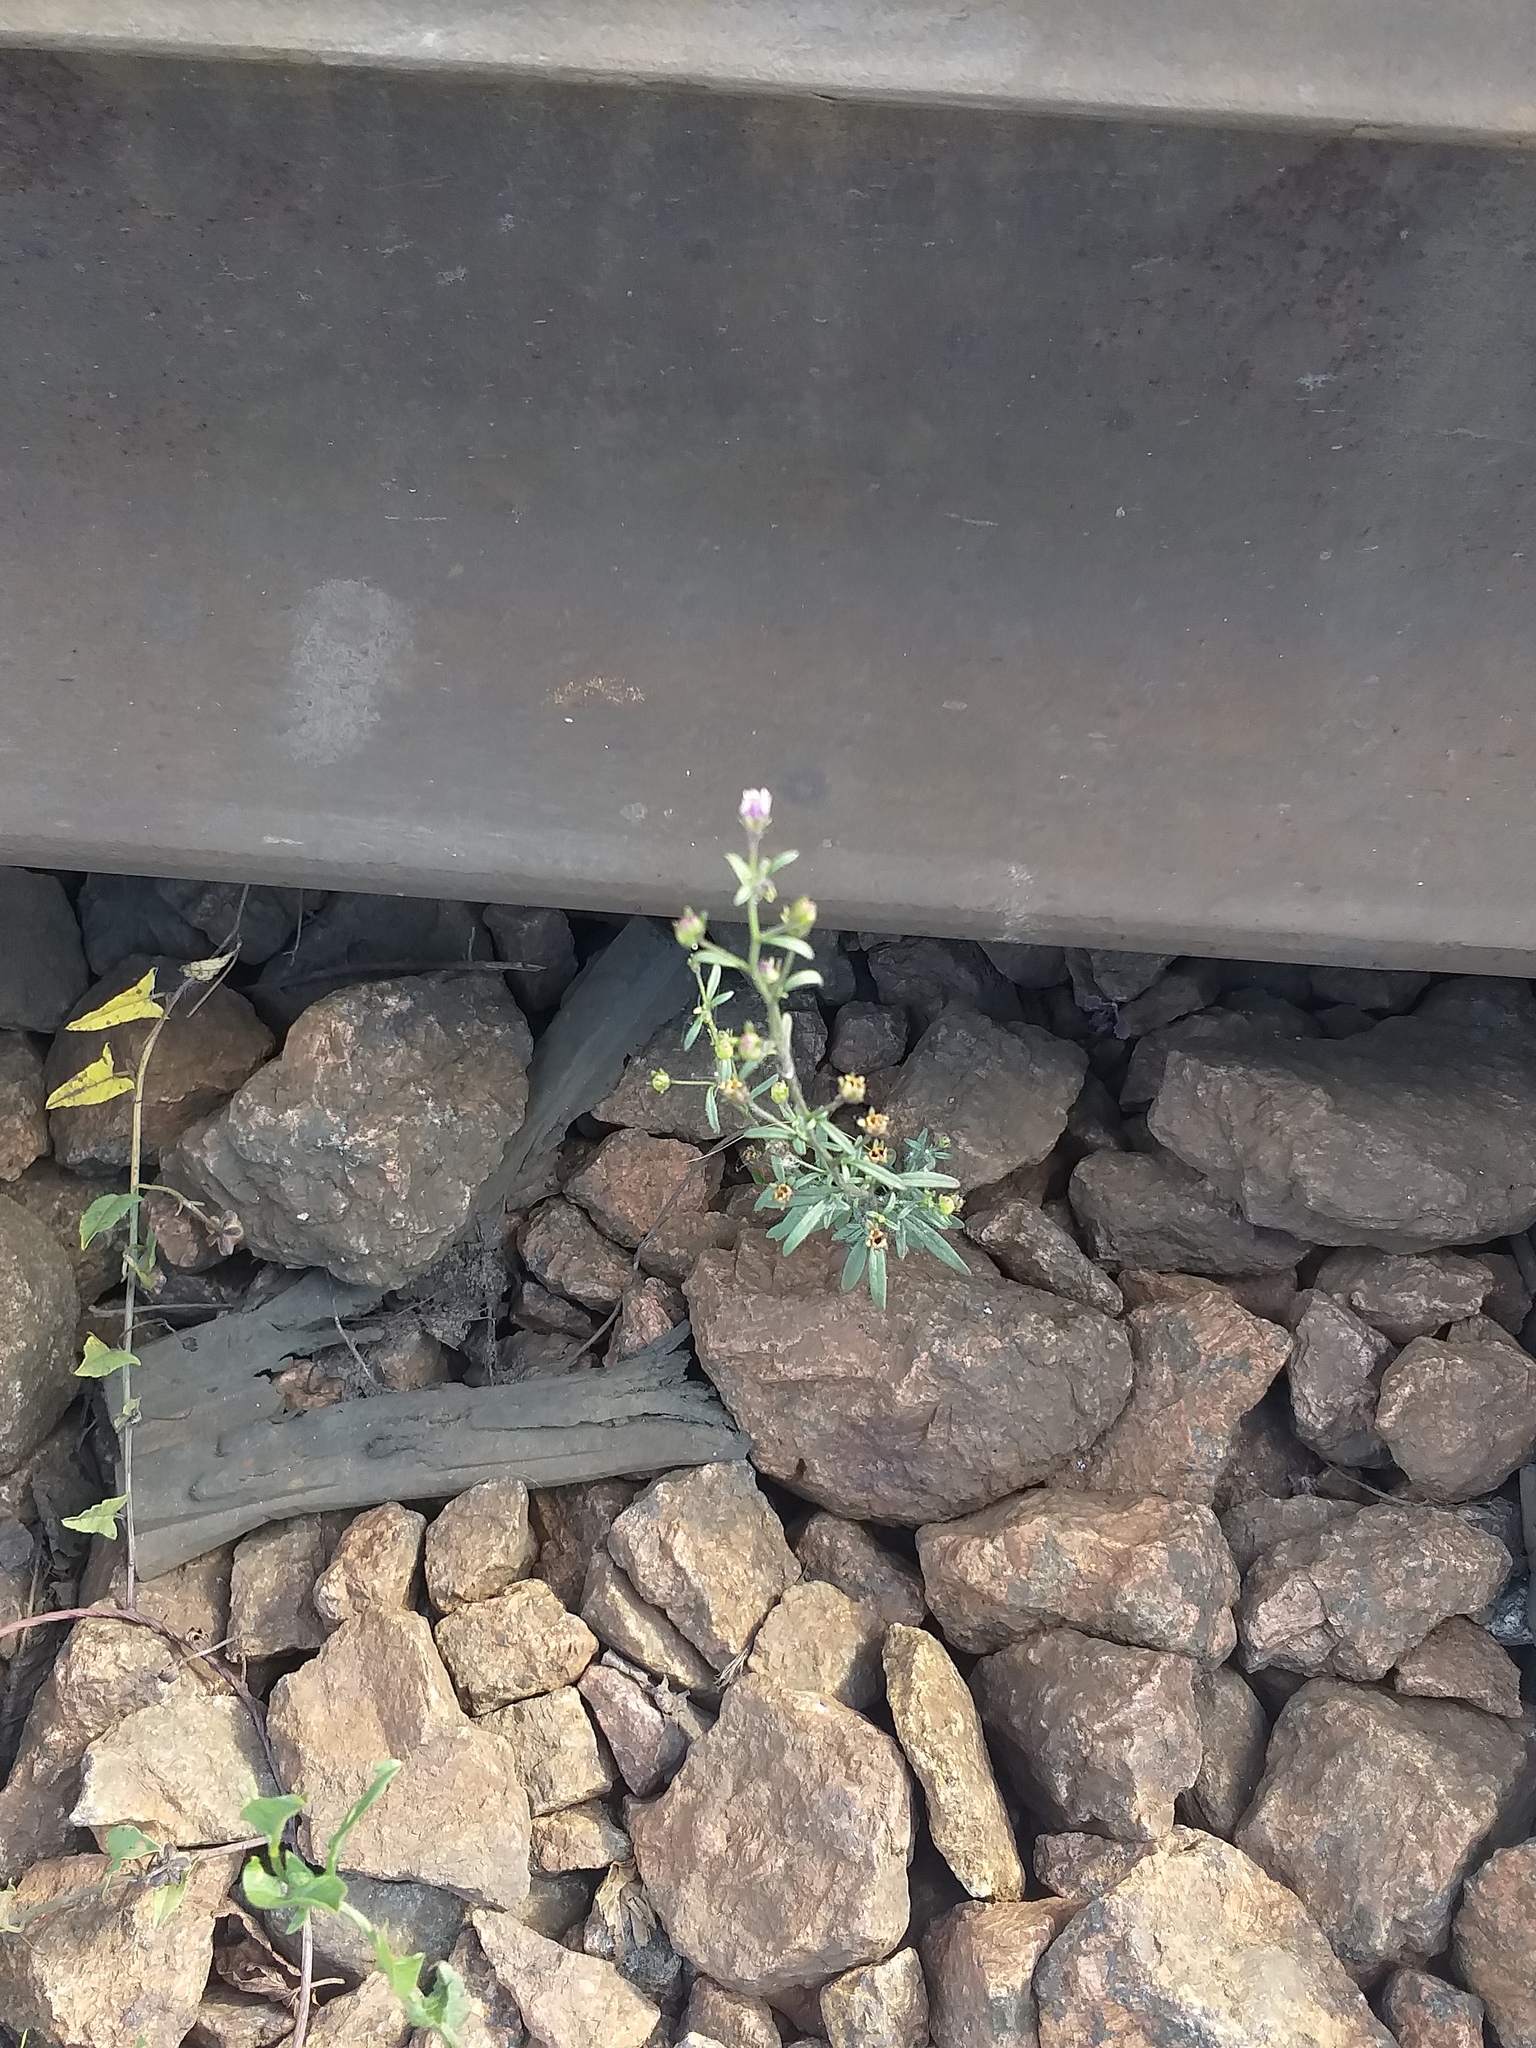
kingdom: Plantae
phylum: Tracheophyta
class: Magnoliopsida
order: Lamiales
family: Plantaginaceae
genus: Chaenorhinum
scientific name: Chaenorhinum minus
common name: Dwarf snapdragon
